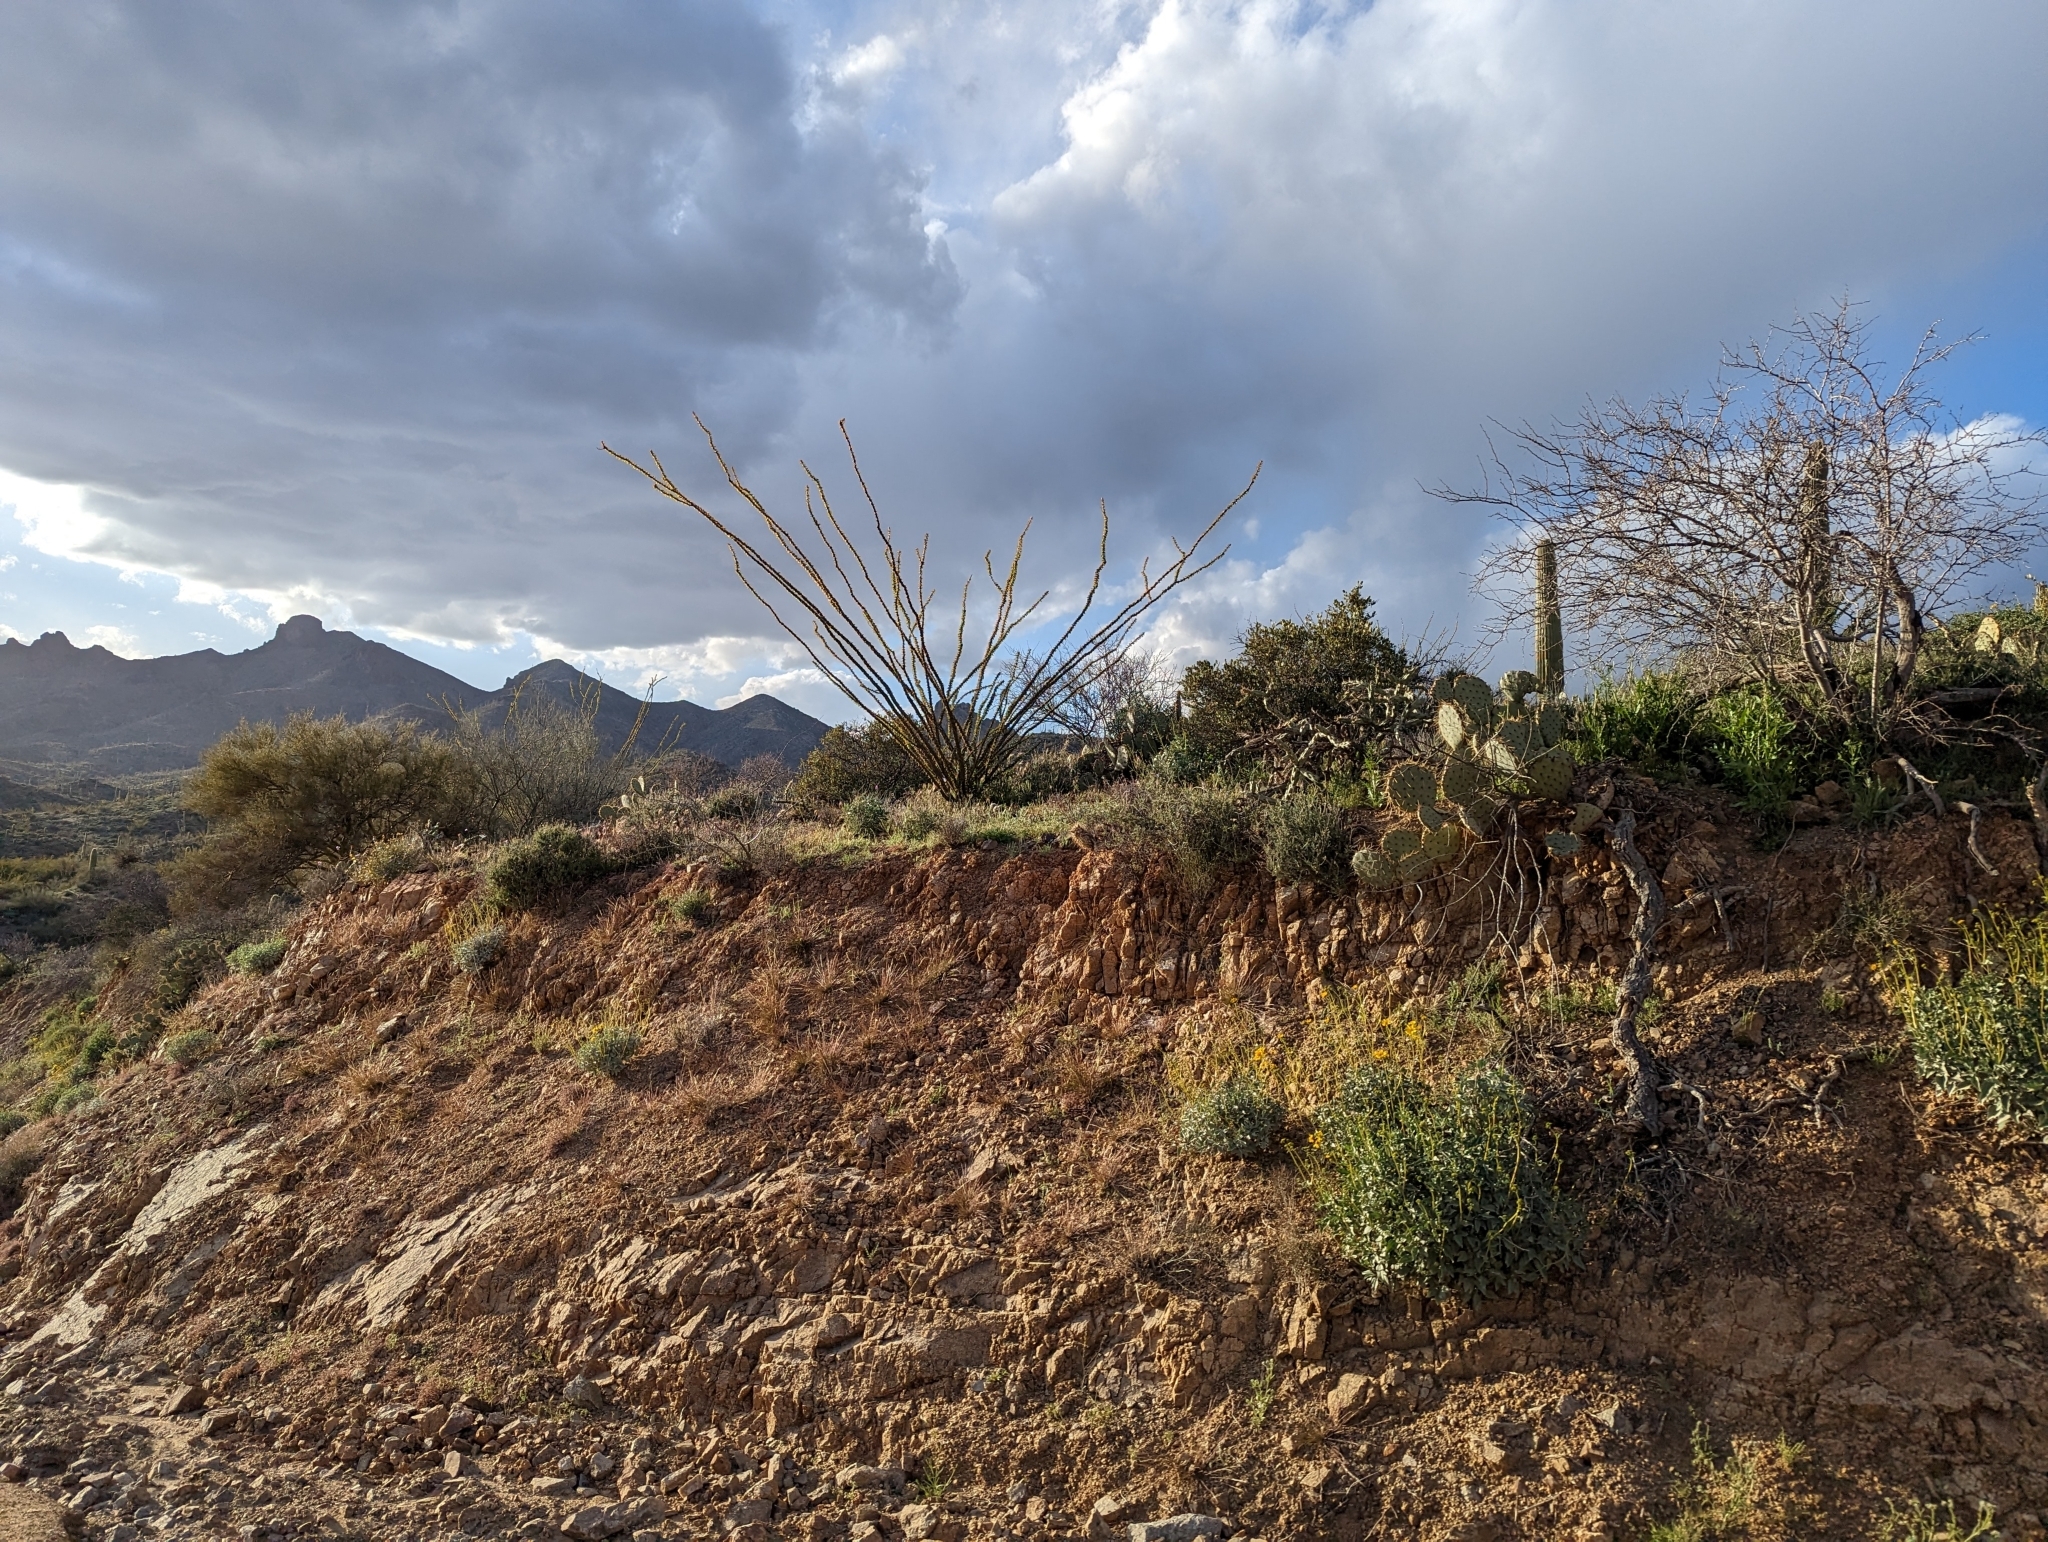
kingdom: Plantae
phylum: Tracheophyta
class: Magnoliopsida
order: Ericales
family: Fouquieriaceae
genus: Fouquieria
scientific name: Fouquieria splendens
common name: Vine-cactus
